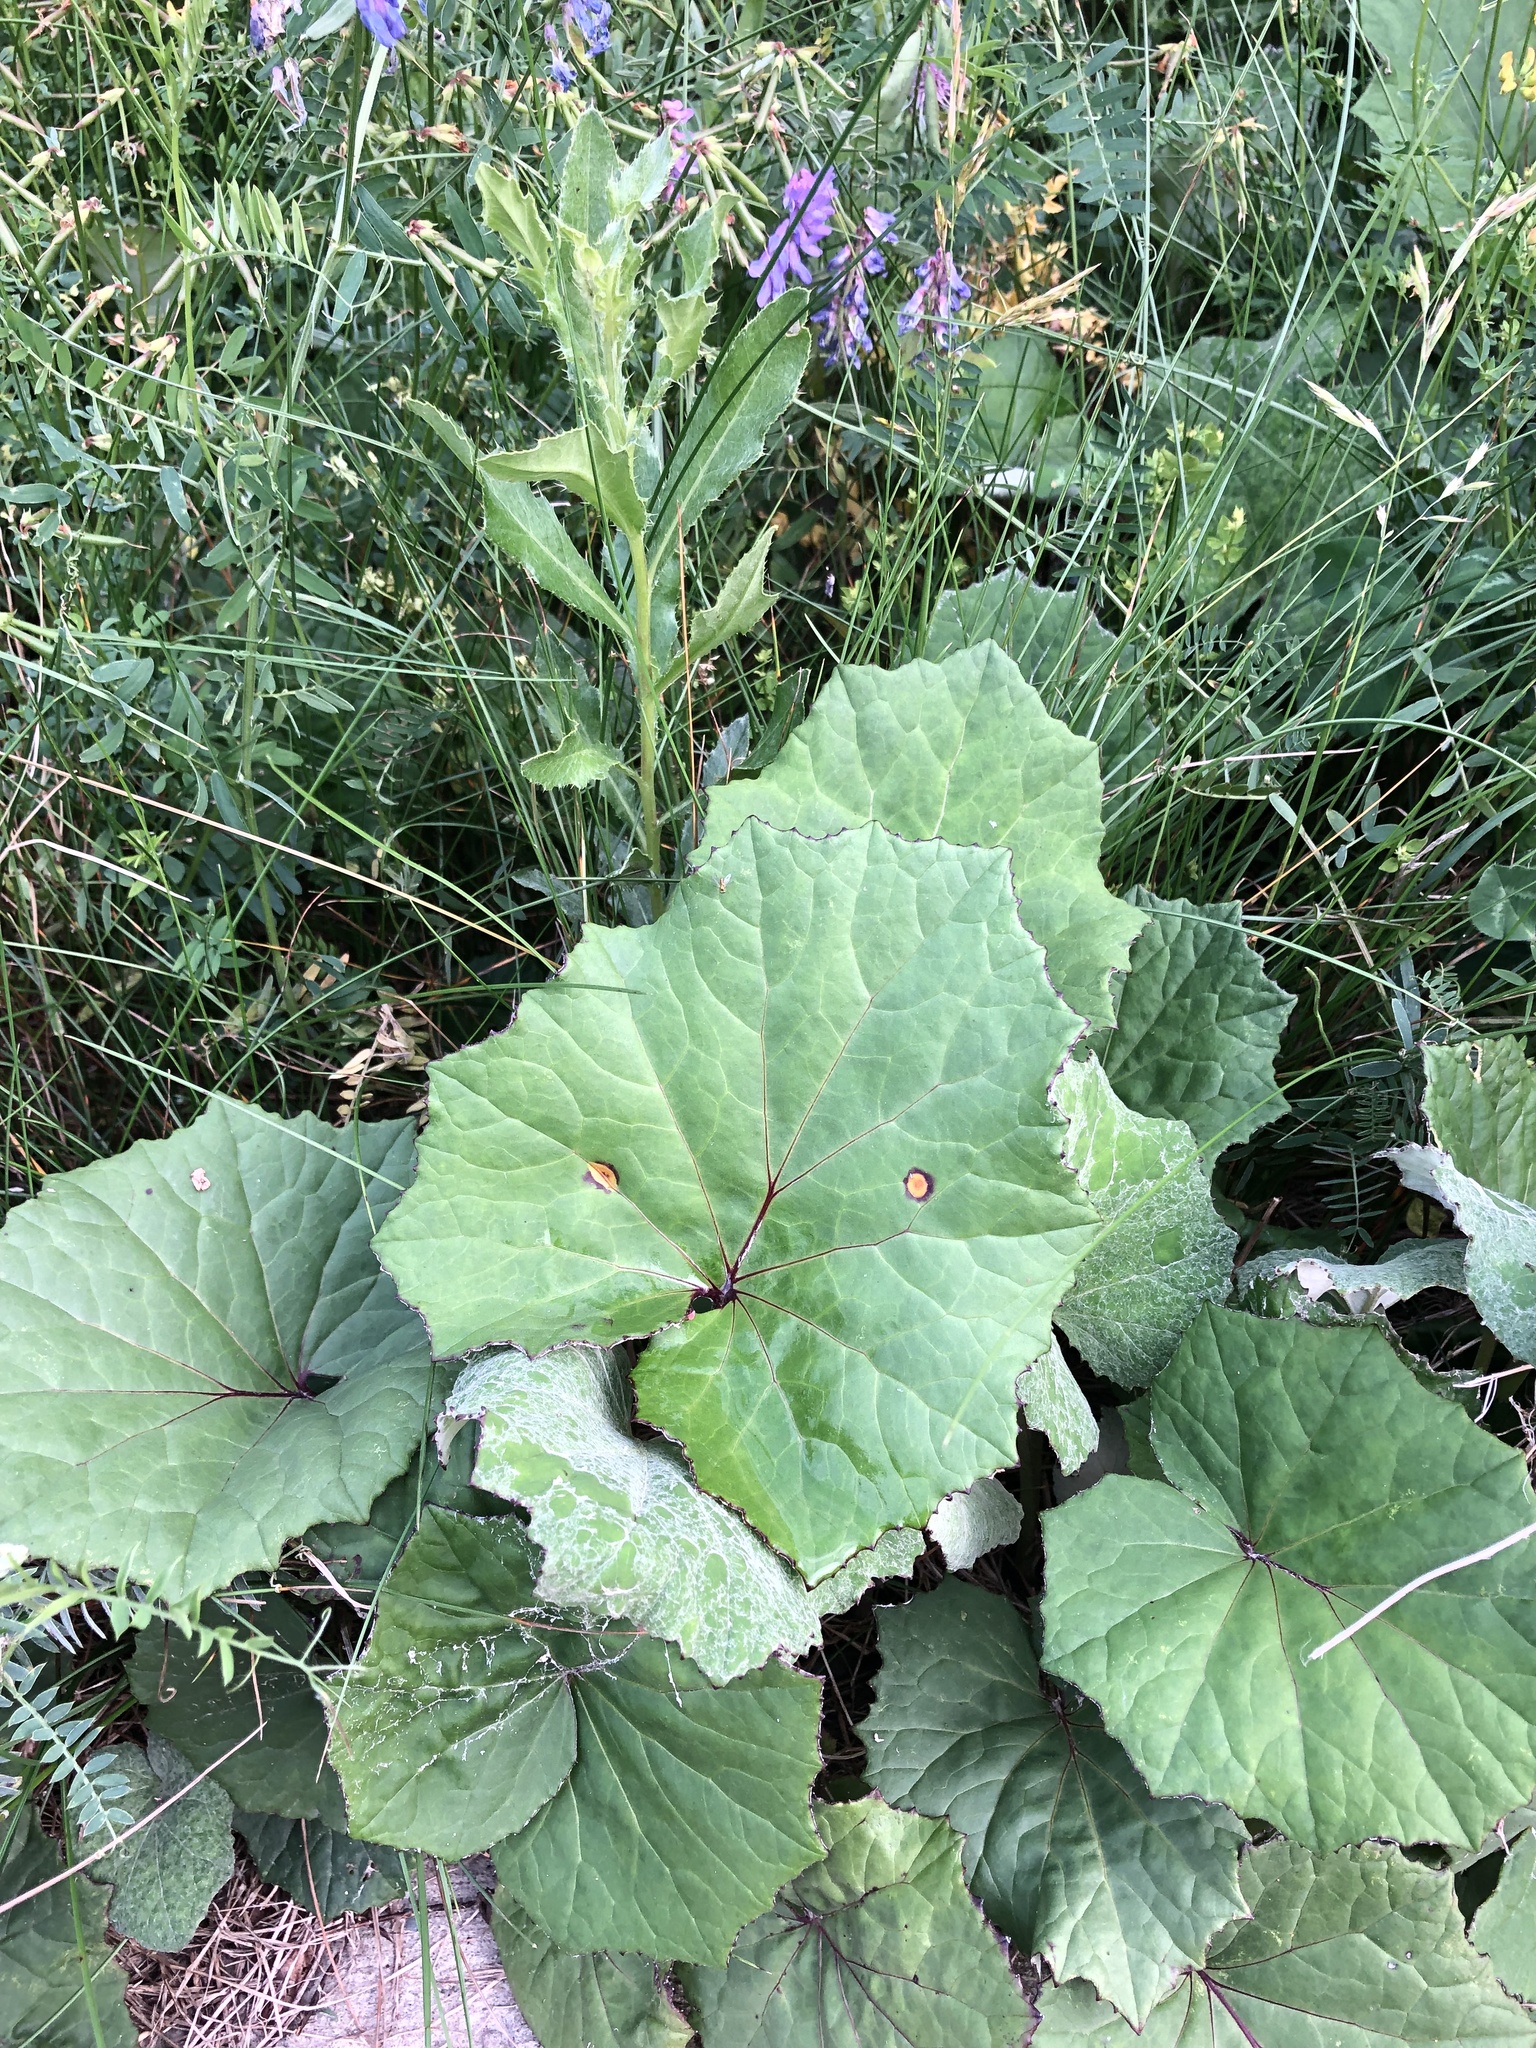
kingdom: Plantae
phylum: Tracheophyta
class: Magnoliopsida
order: Asterales
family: Asteraceae
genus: Tussilago
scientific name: Tussilago farfara
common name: Coltsfoot
